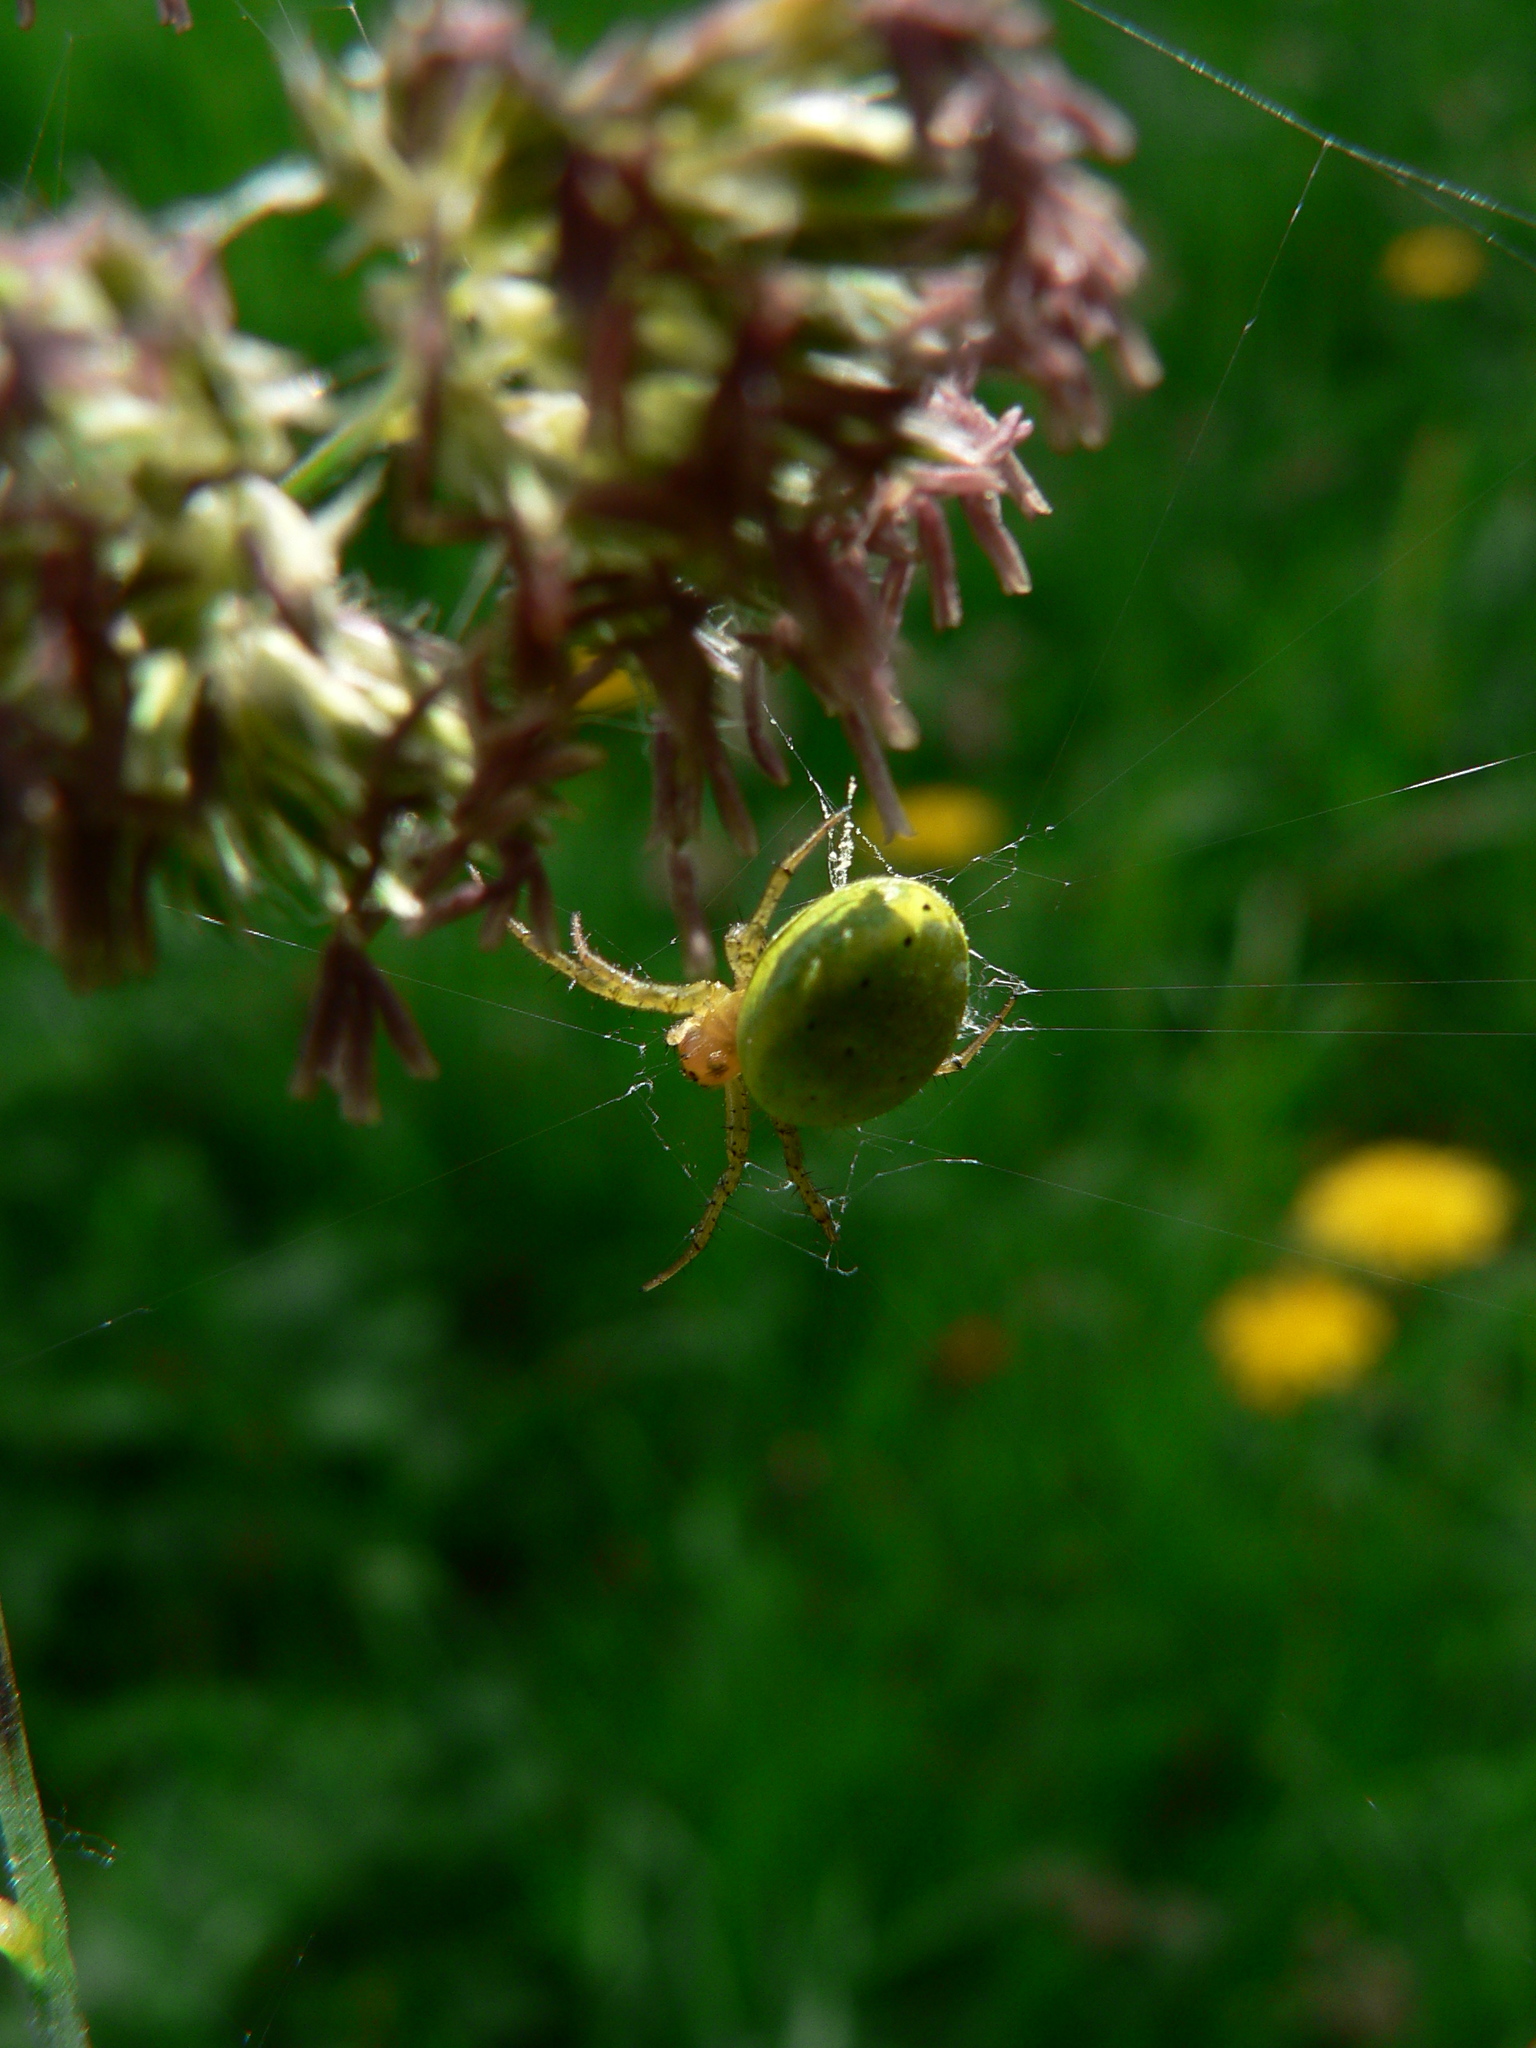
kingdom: Animalia
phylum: Arthropoda
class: Arachnida
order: Araneae
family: Araneidae
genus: Araniella
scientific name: Araniella
